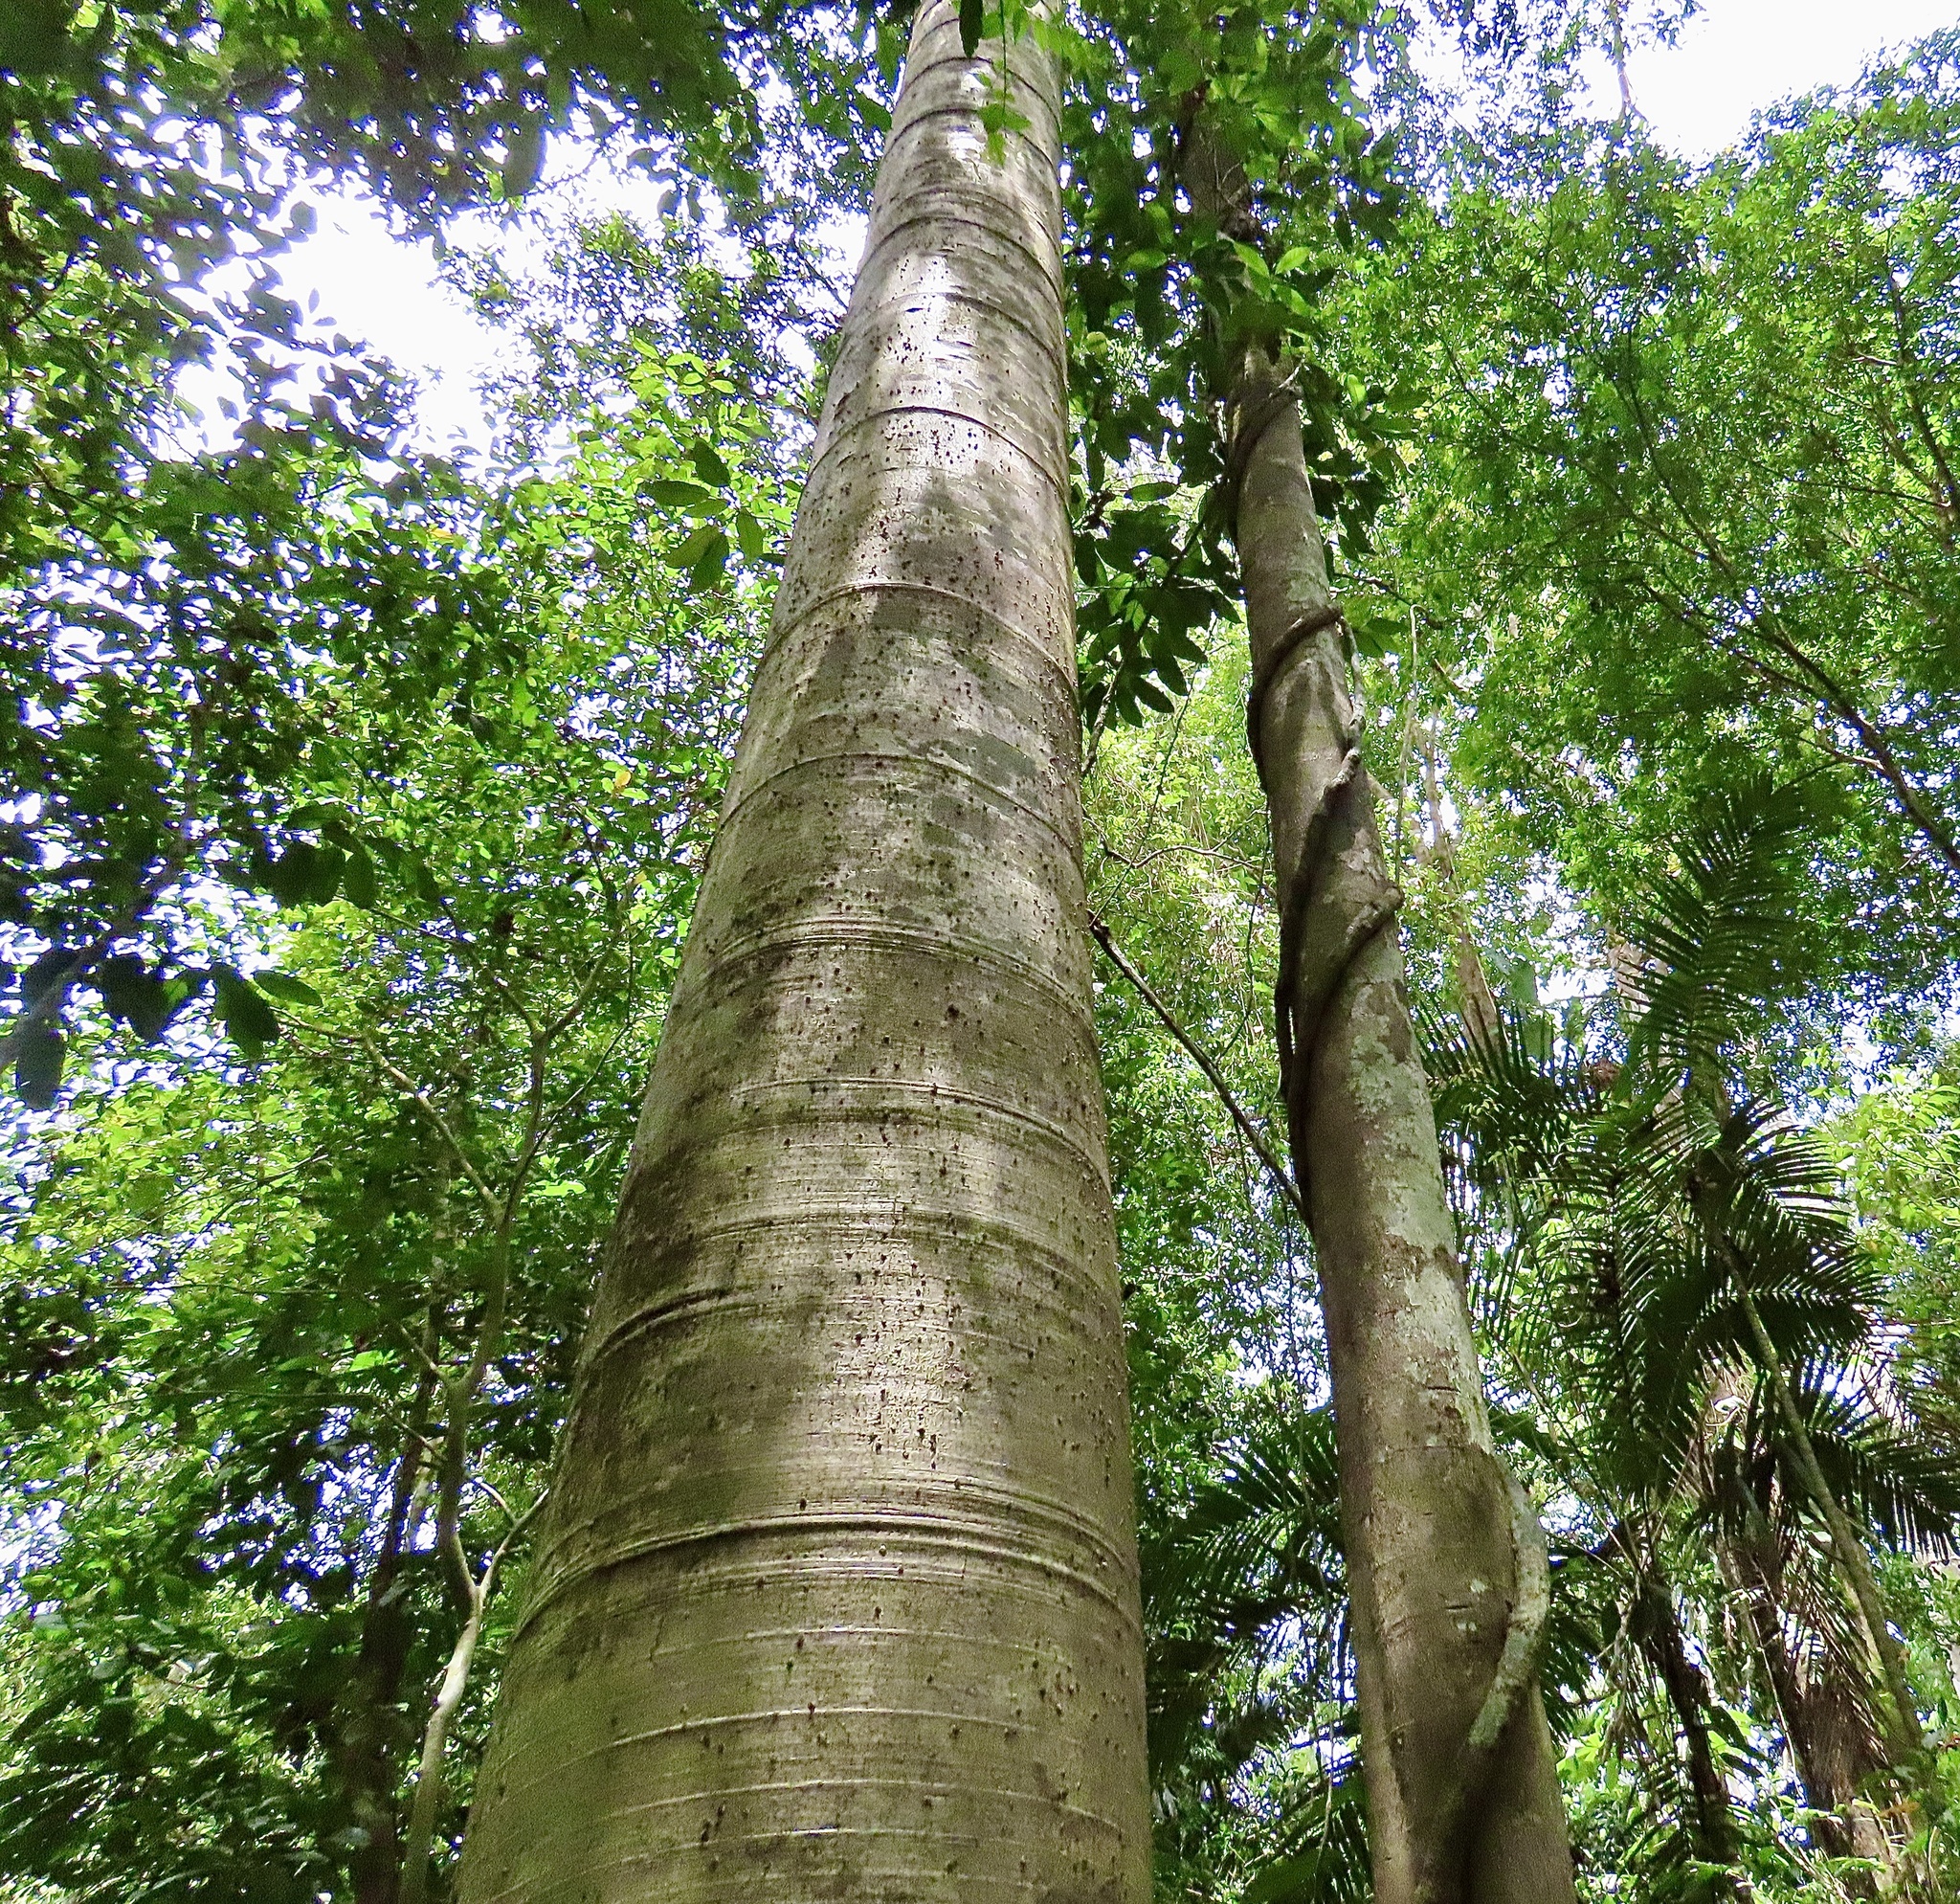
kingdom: Plantae
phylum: Tracheophyta
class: Magnoliopsida
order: Malvales
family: Malvaceae
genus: Cavanillesia
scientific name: Cavanillesia platanifolia
